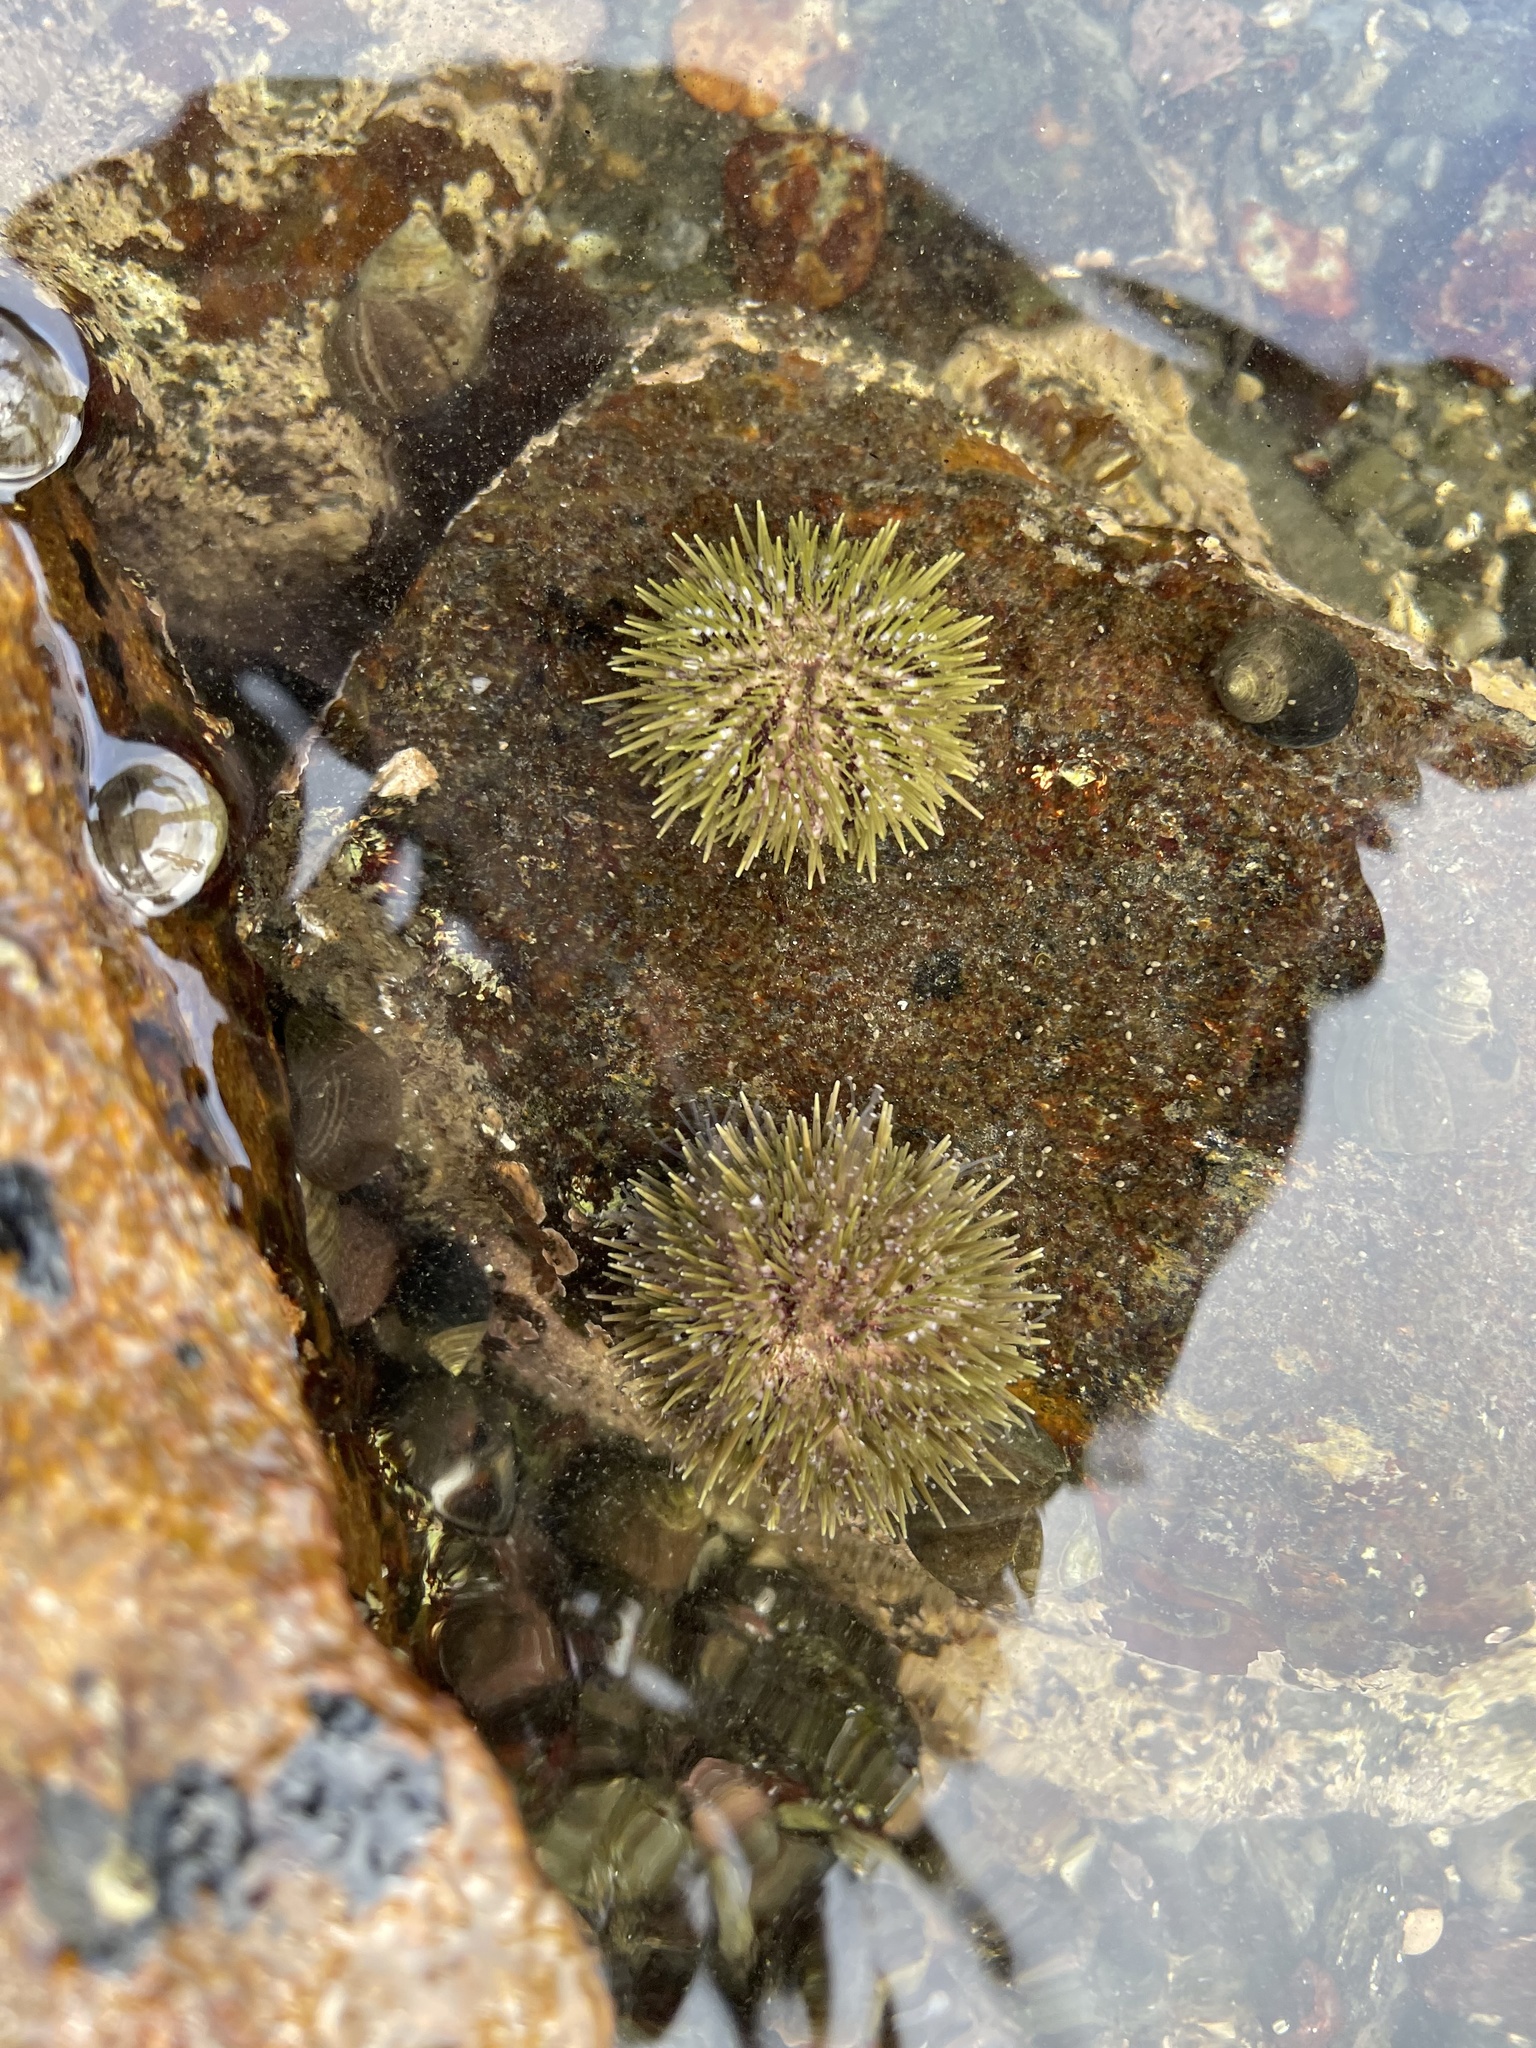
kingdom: Animalia
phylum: Echinodermata
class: Echinoidea
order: Camarodonta
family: Strongylocentrotidae
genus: Strongylocentrotus
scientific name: Strongylocentrotus droebachiensis
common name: Northern sea urchin
